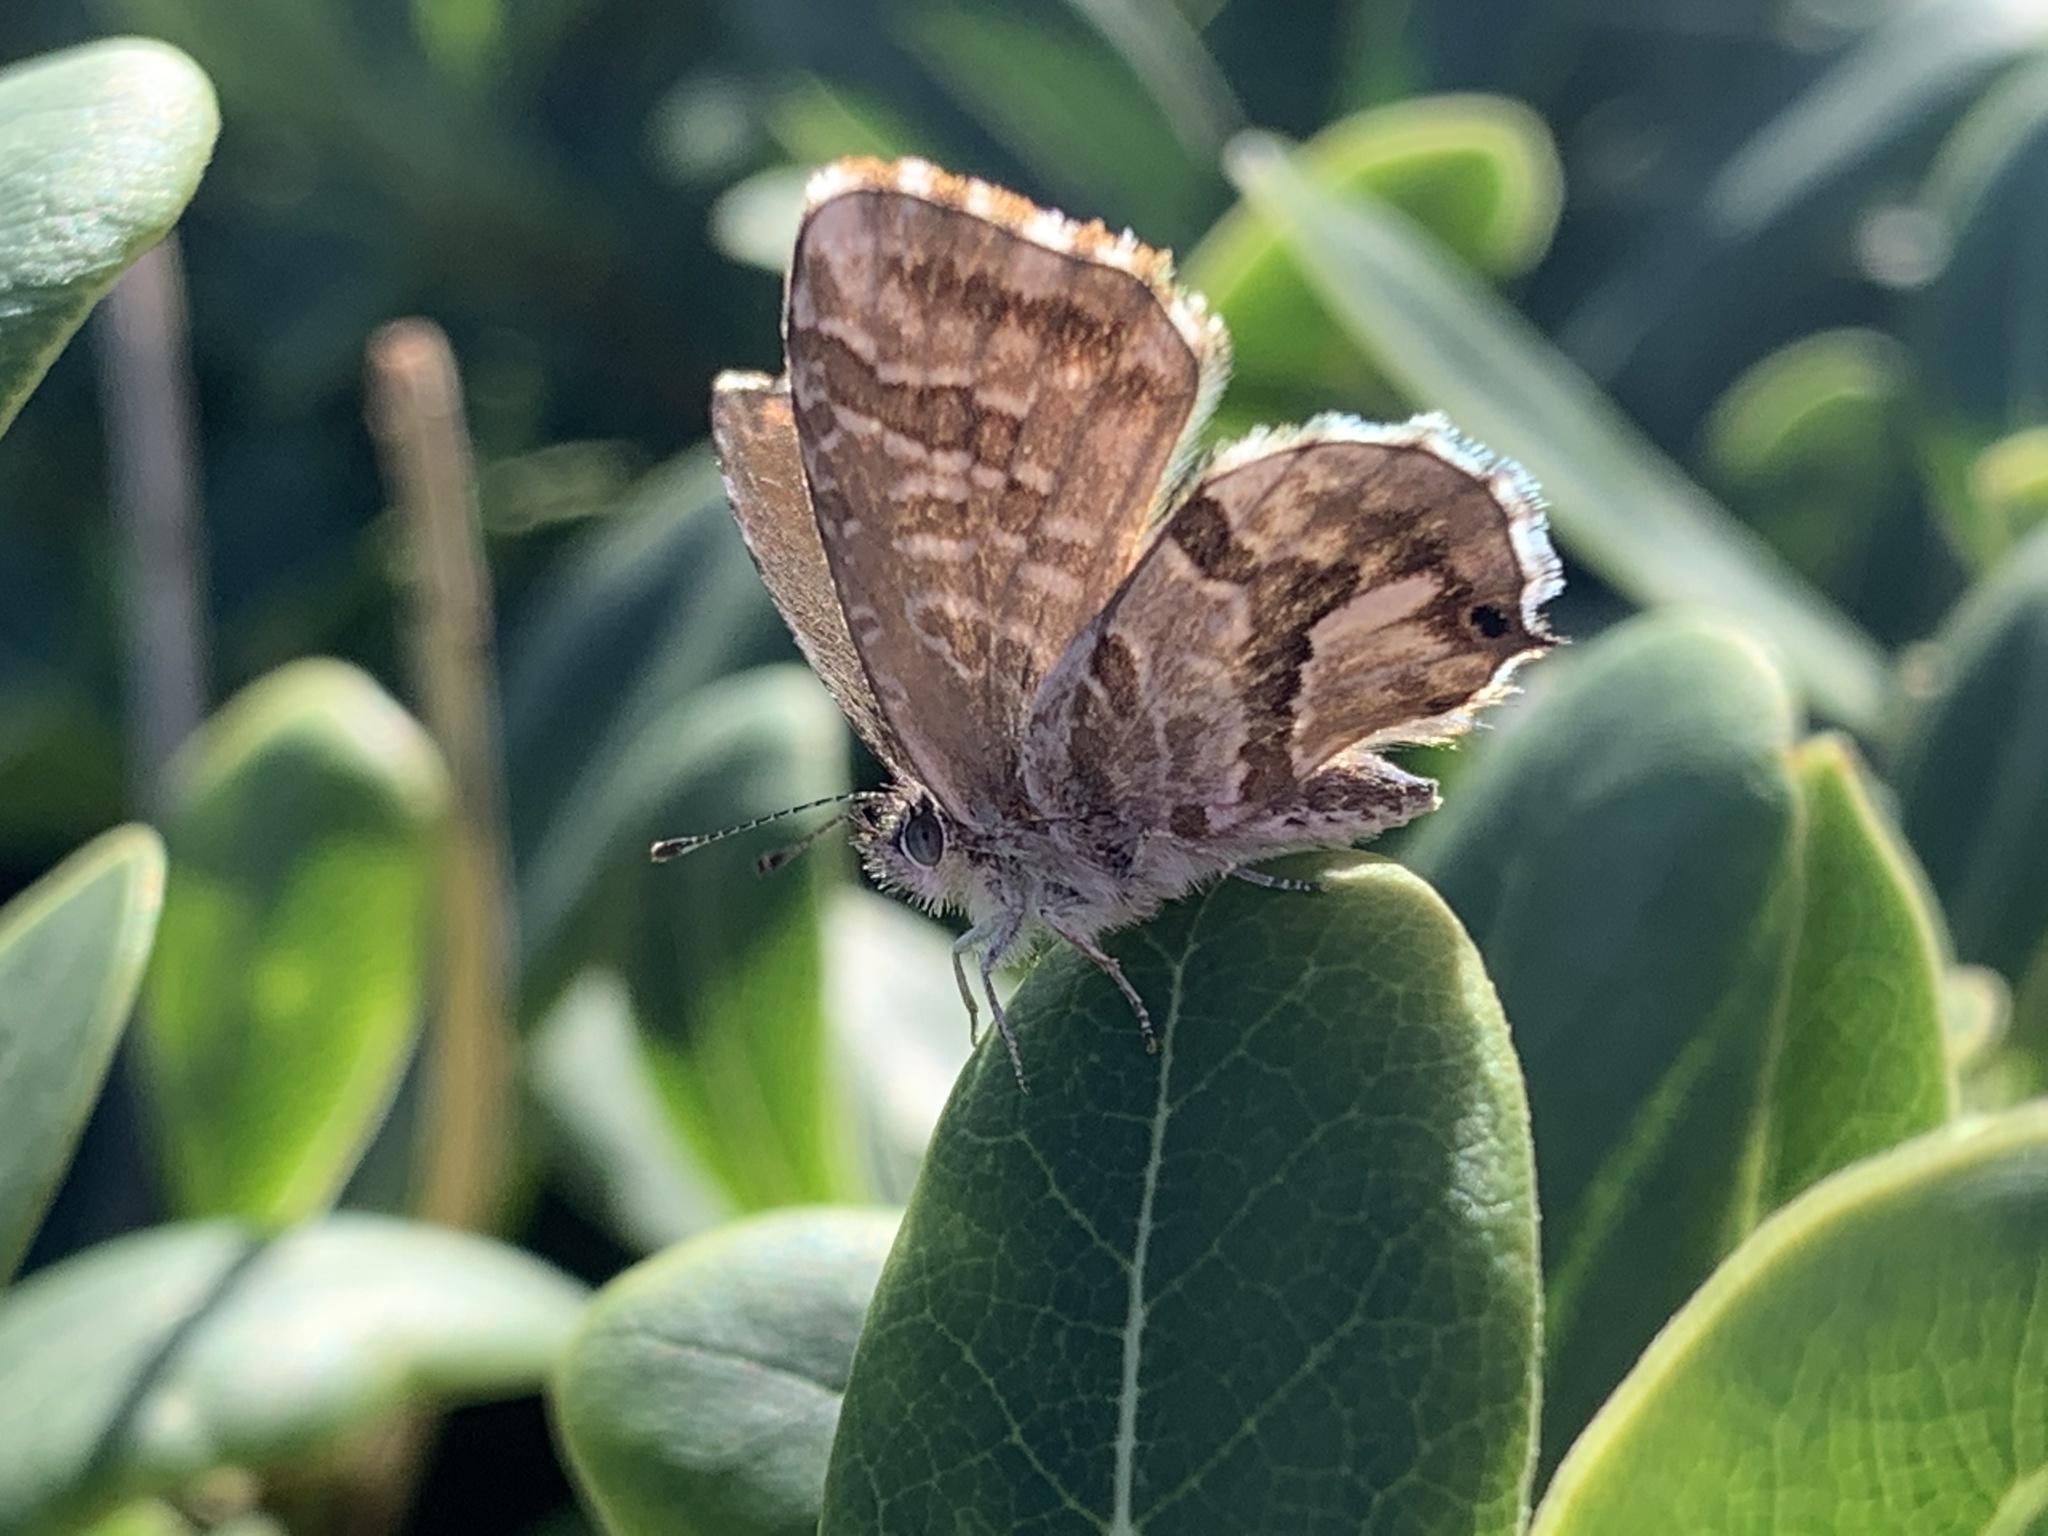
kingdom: Animalia
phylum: Arthropoda
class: Insecta
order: Lepidoptera
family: Lycaenidae
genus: Cacyreus
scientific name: Cacyreus marshalli
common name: Geranium bronze
